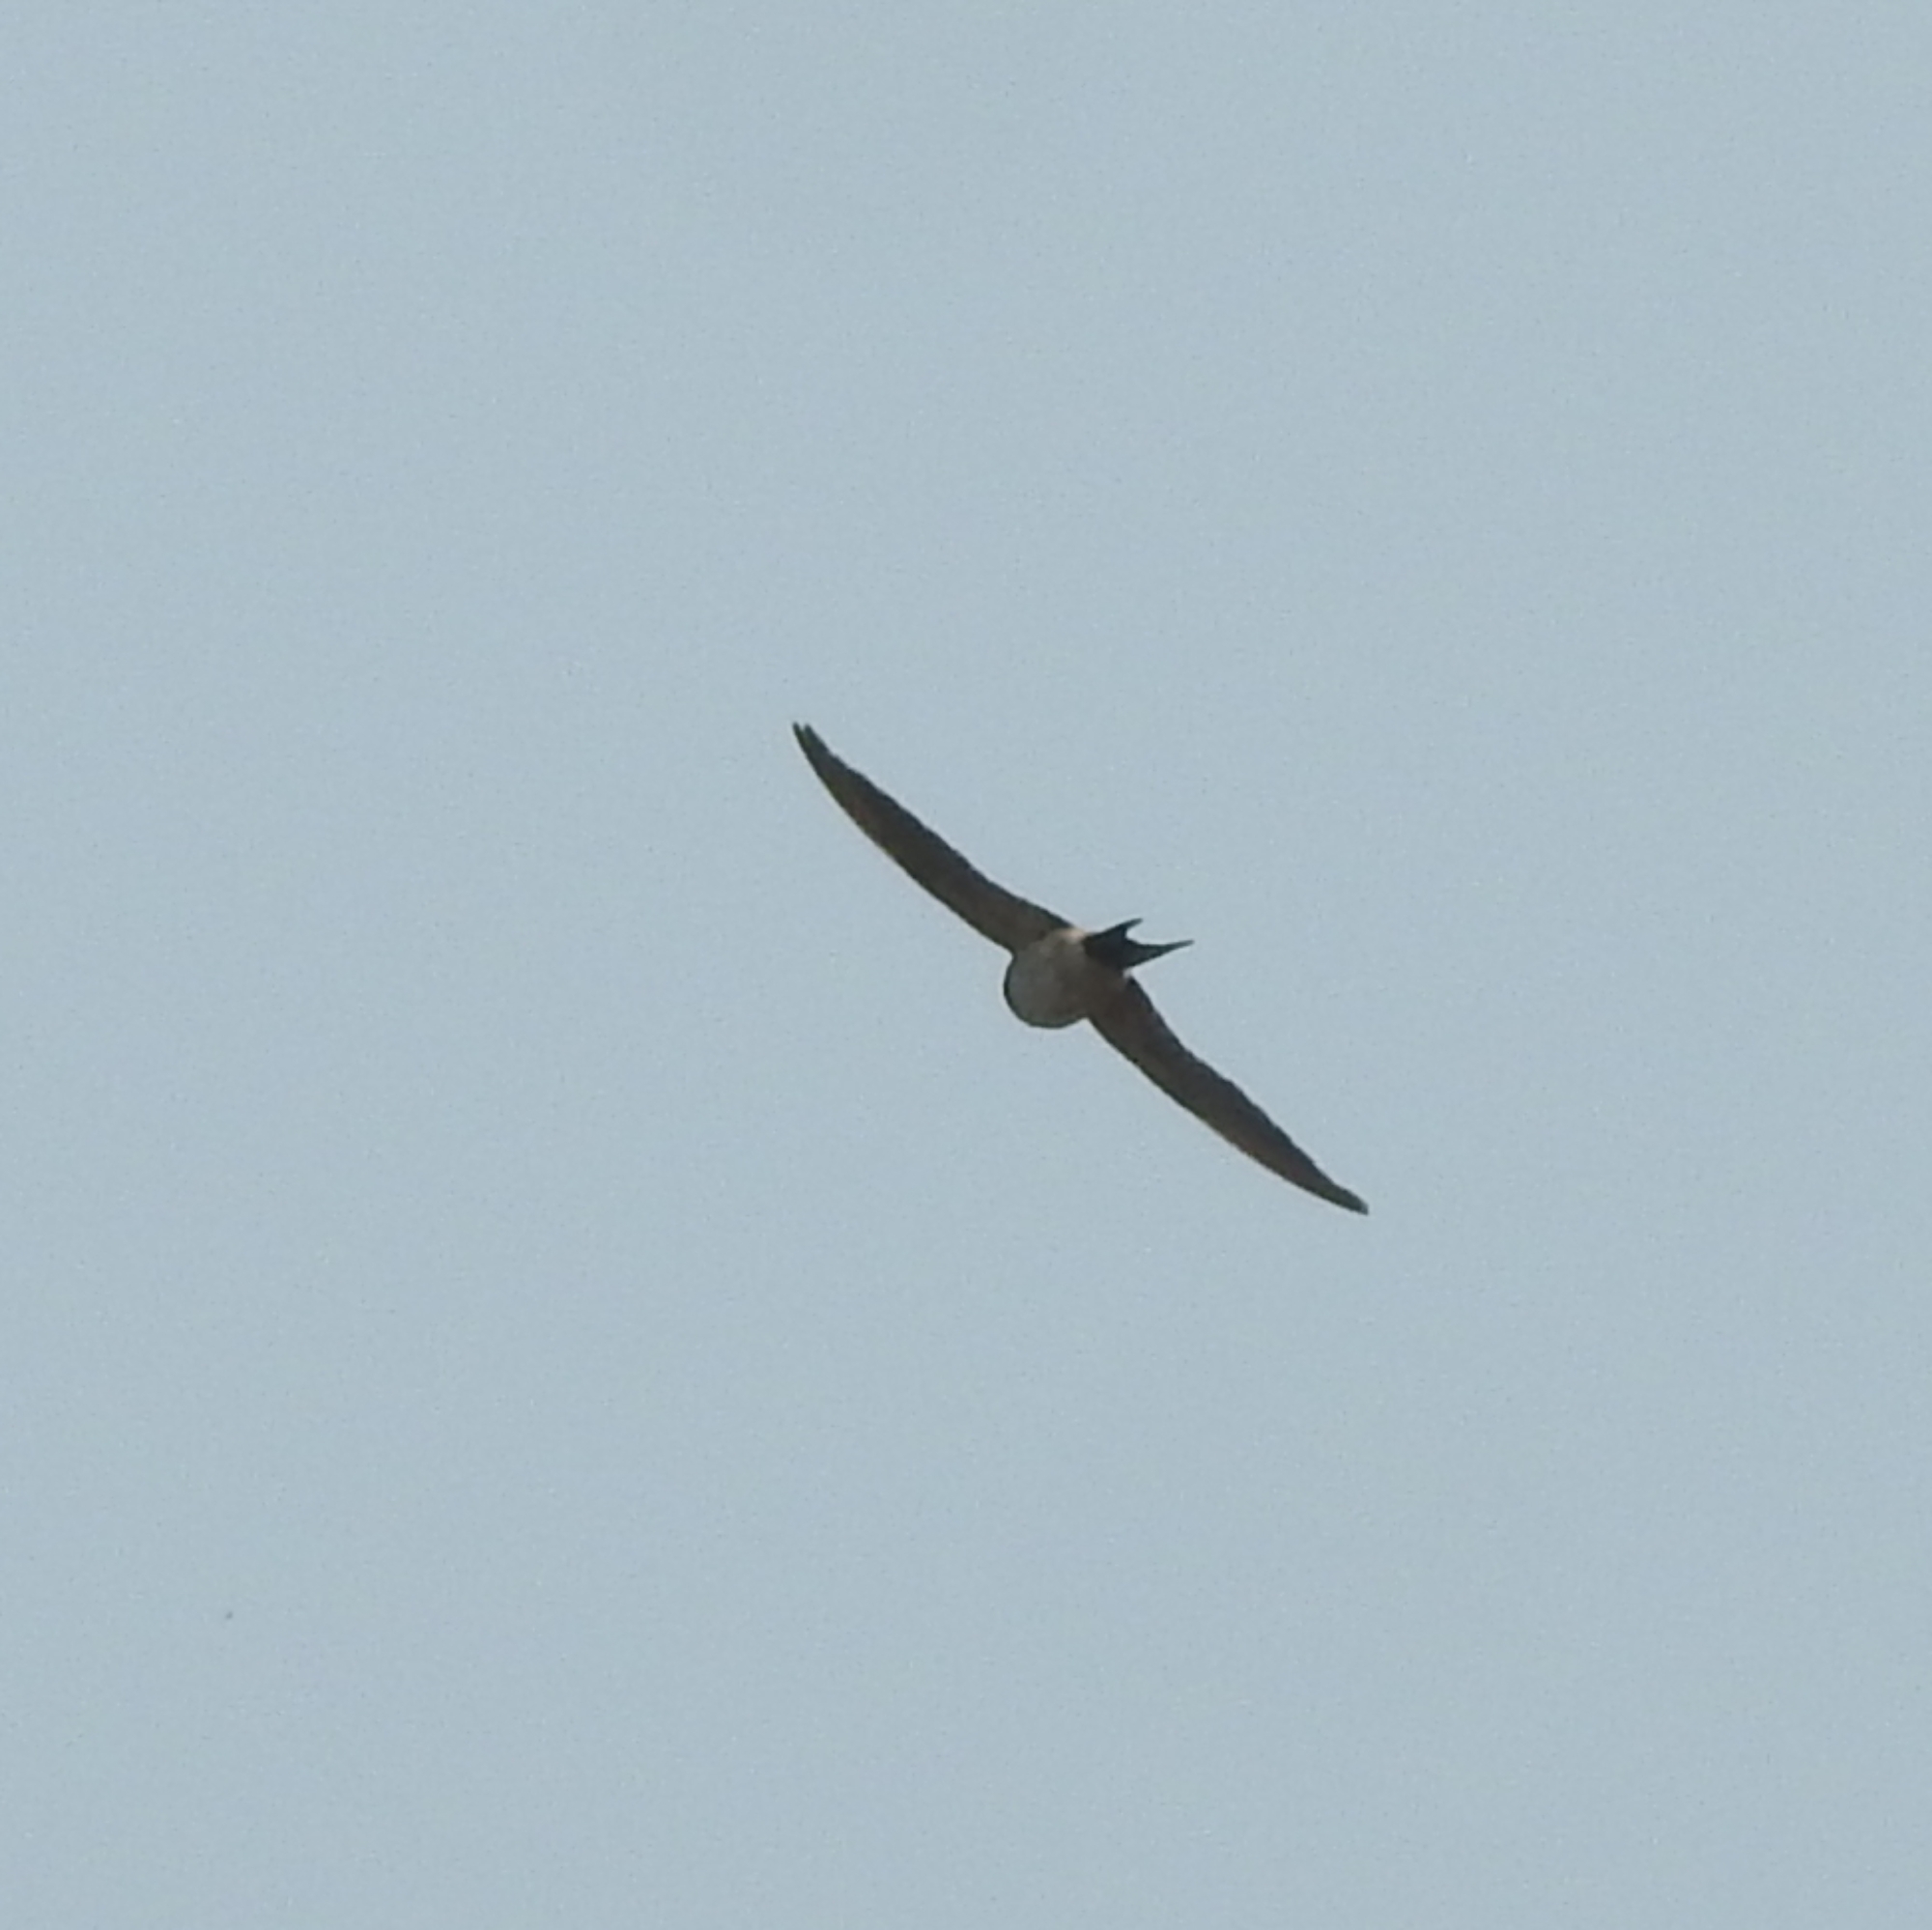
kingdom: Animalia
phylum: Chordata
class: Aves
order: Passeriformes
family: Hirundinidae
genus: Cecropis
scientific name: Cecropis daurica
